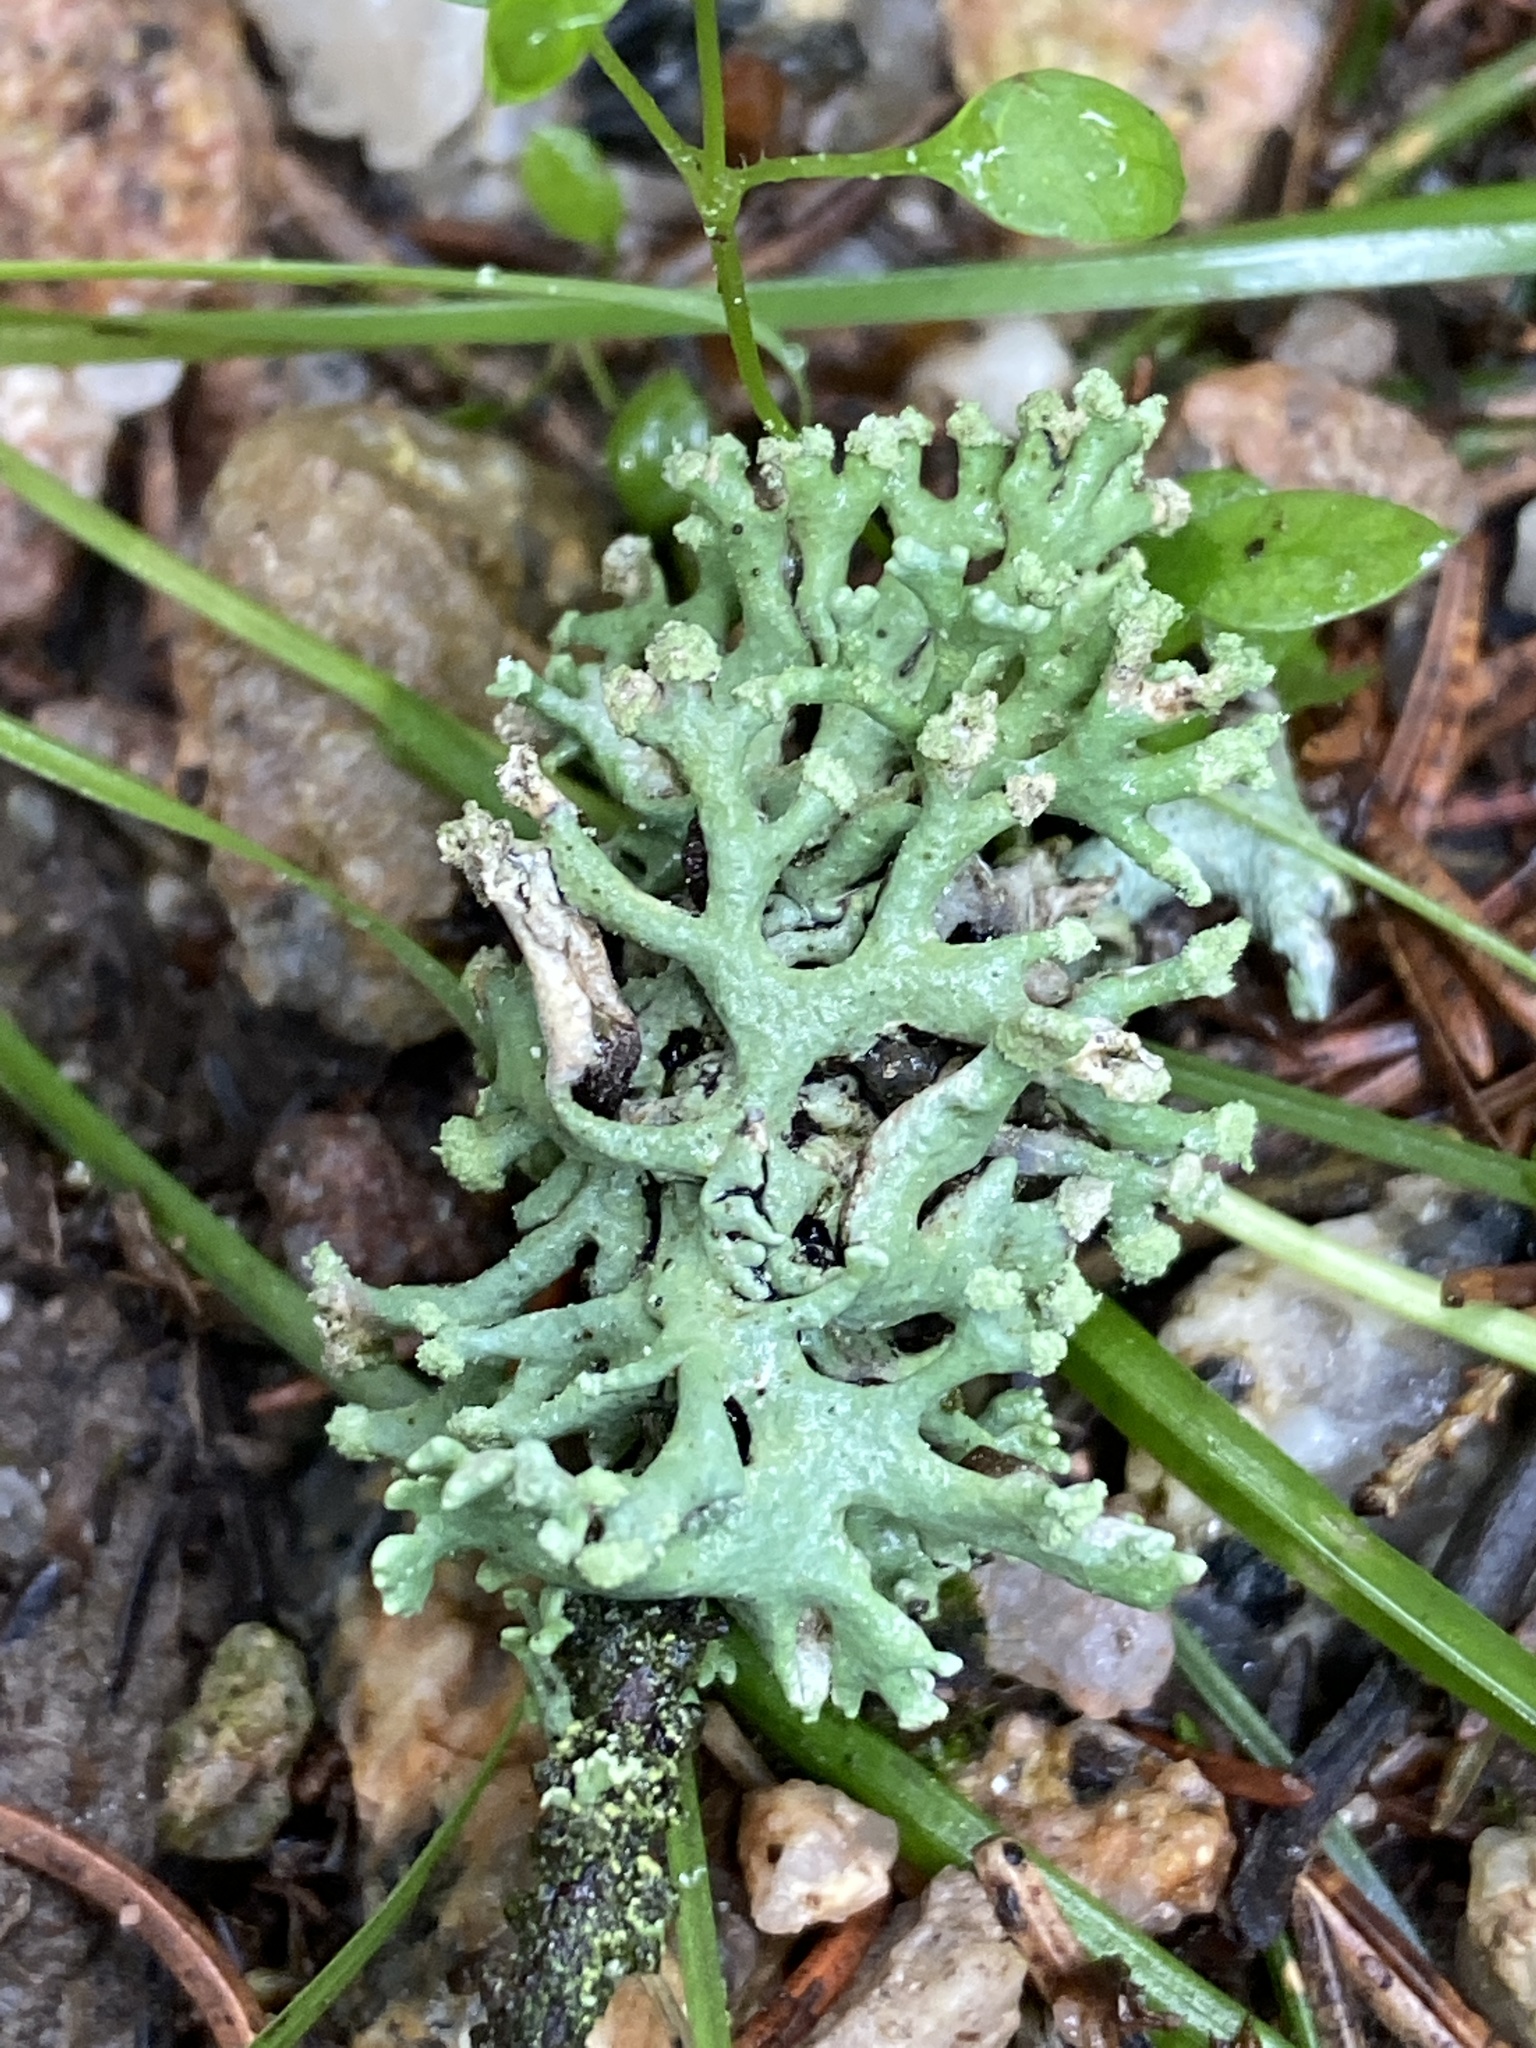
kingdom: Fungi
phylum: Ascomycota
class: Lecanoromycetes
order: Lecanorales
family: Parmeliaceae
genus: Hypogymnia
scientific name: Hypogymnia tubulosa
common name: Powder-headed tube lichen
